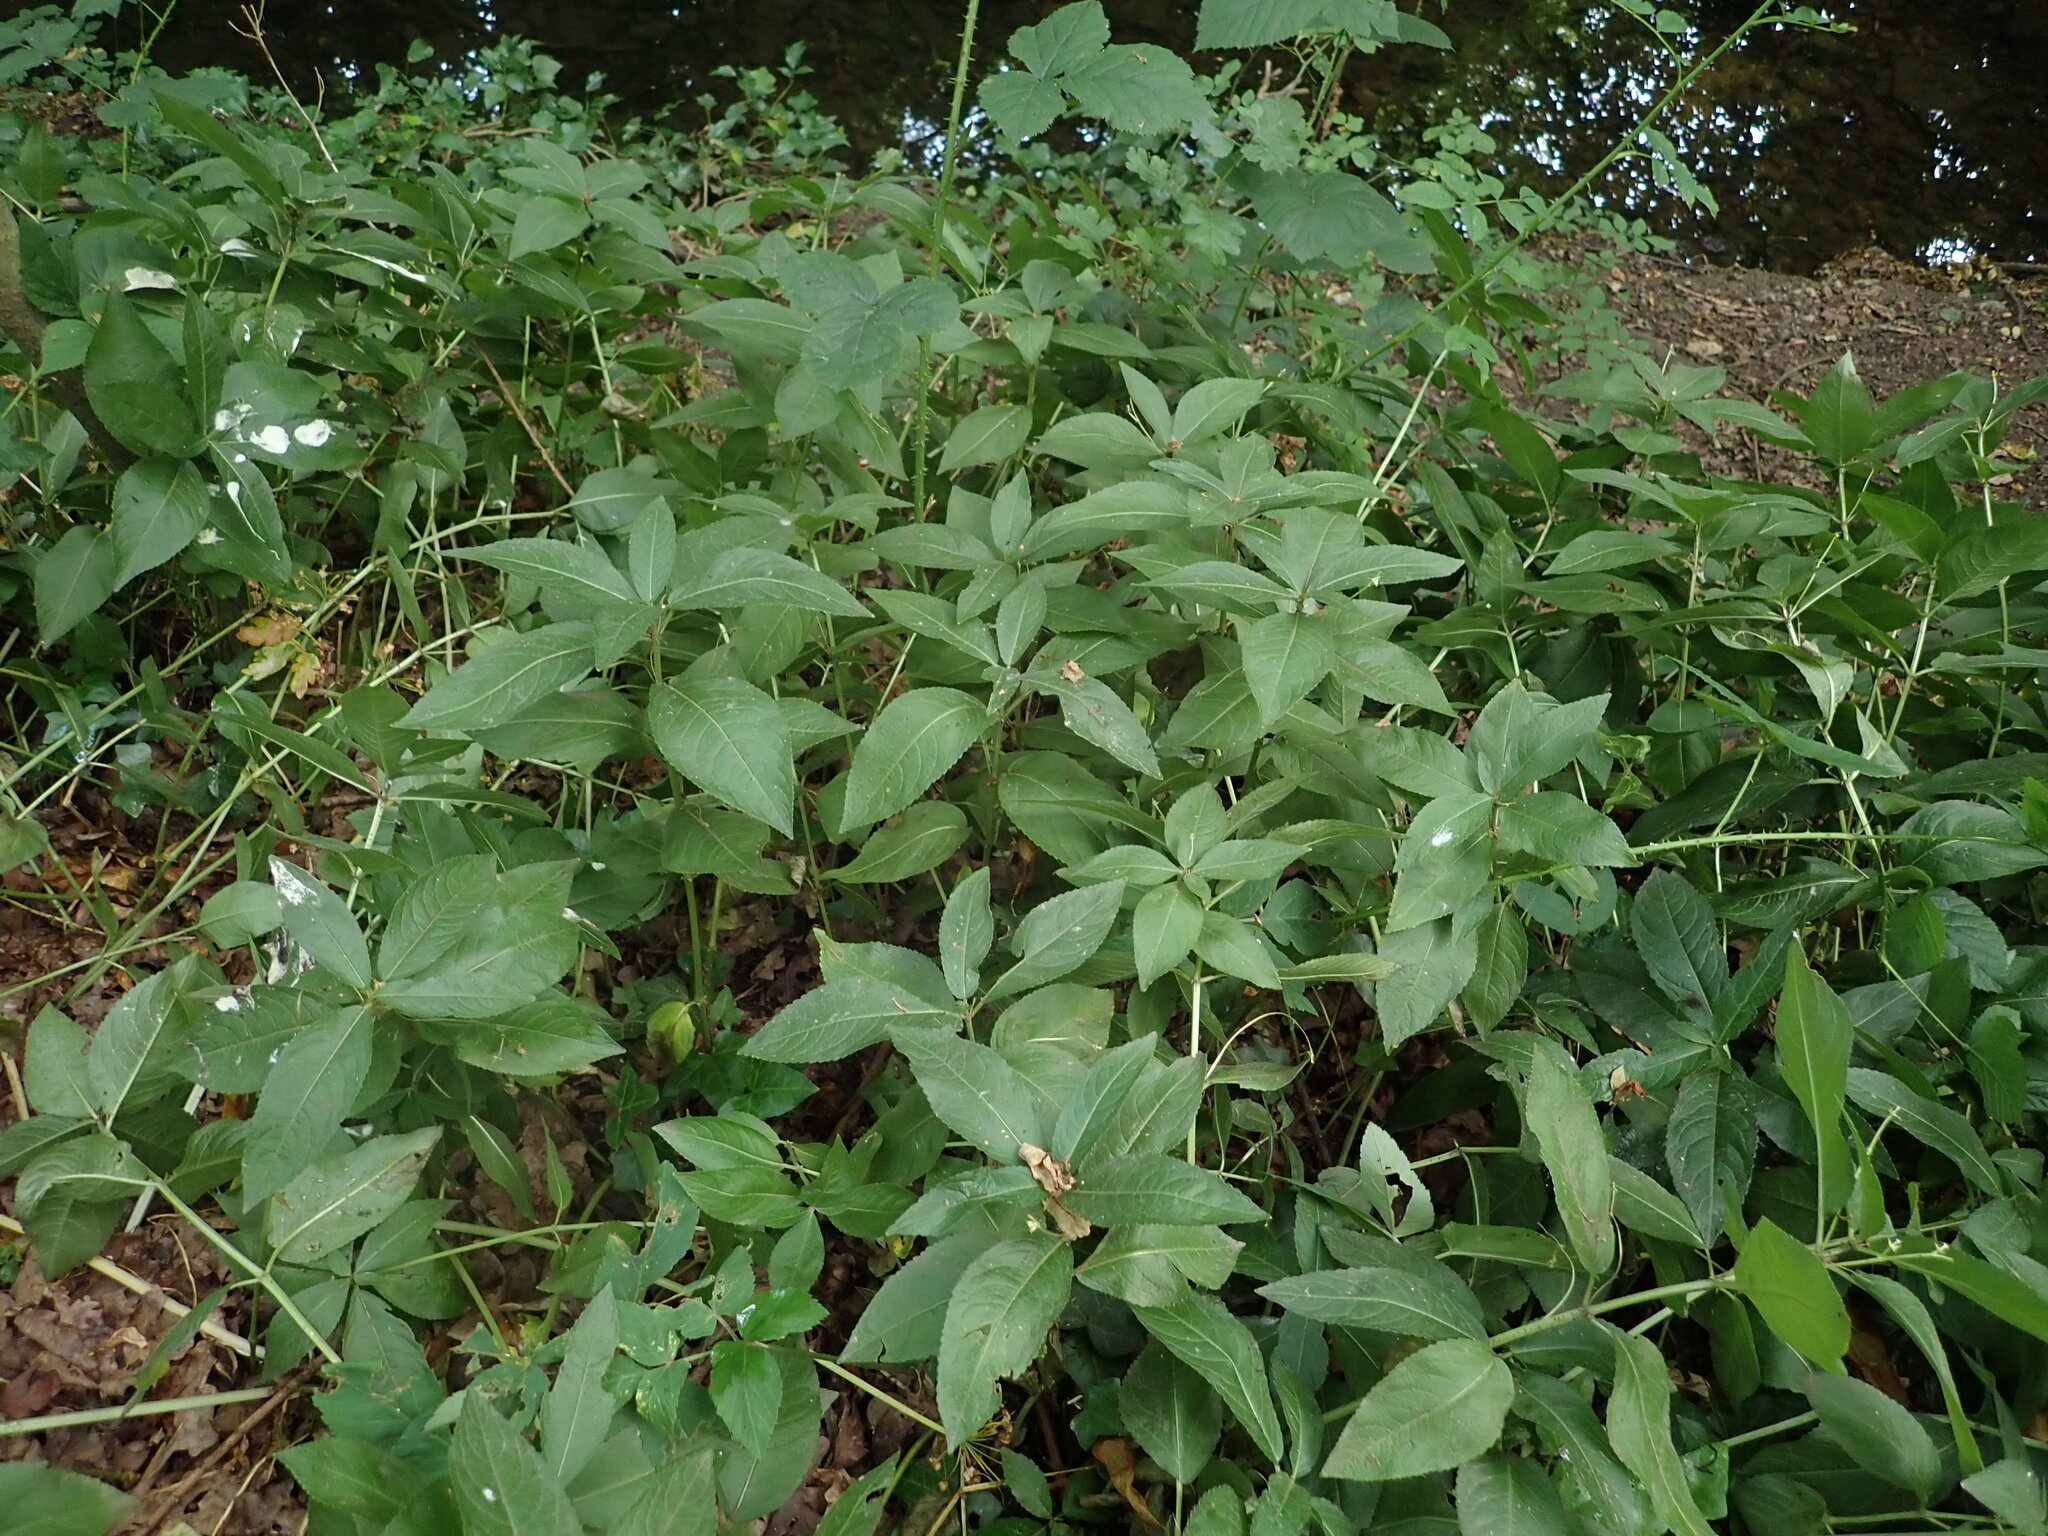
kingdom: Plantae
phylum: Tracheophyta
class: Magnoliopsida
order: Malpighiales
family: Euphorbiaceae
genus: Mercurialis
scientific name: Mercurialis perennis
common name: Dog mercury
